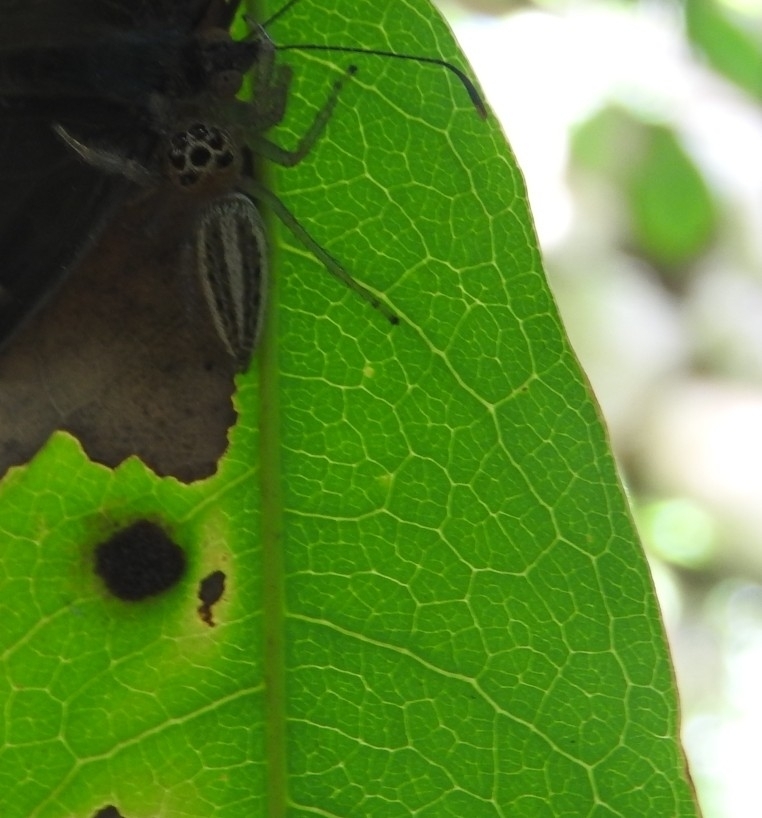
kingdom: Animalia
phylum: Arthropoda
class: Arachnida
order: Araneae
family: Salticidae
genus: Colonus
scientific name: Colonus sylvanus
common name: Jumping spiders
